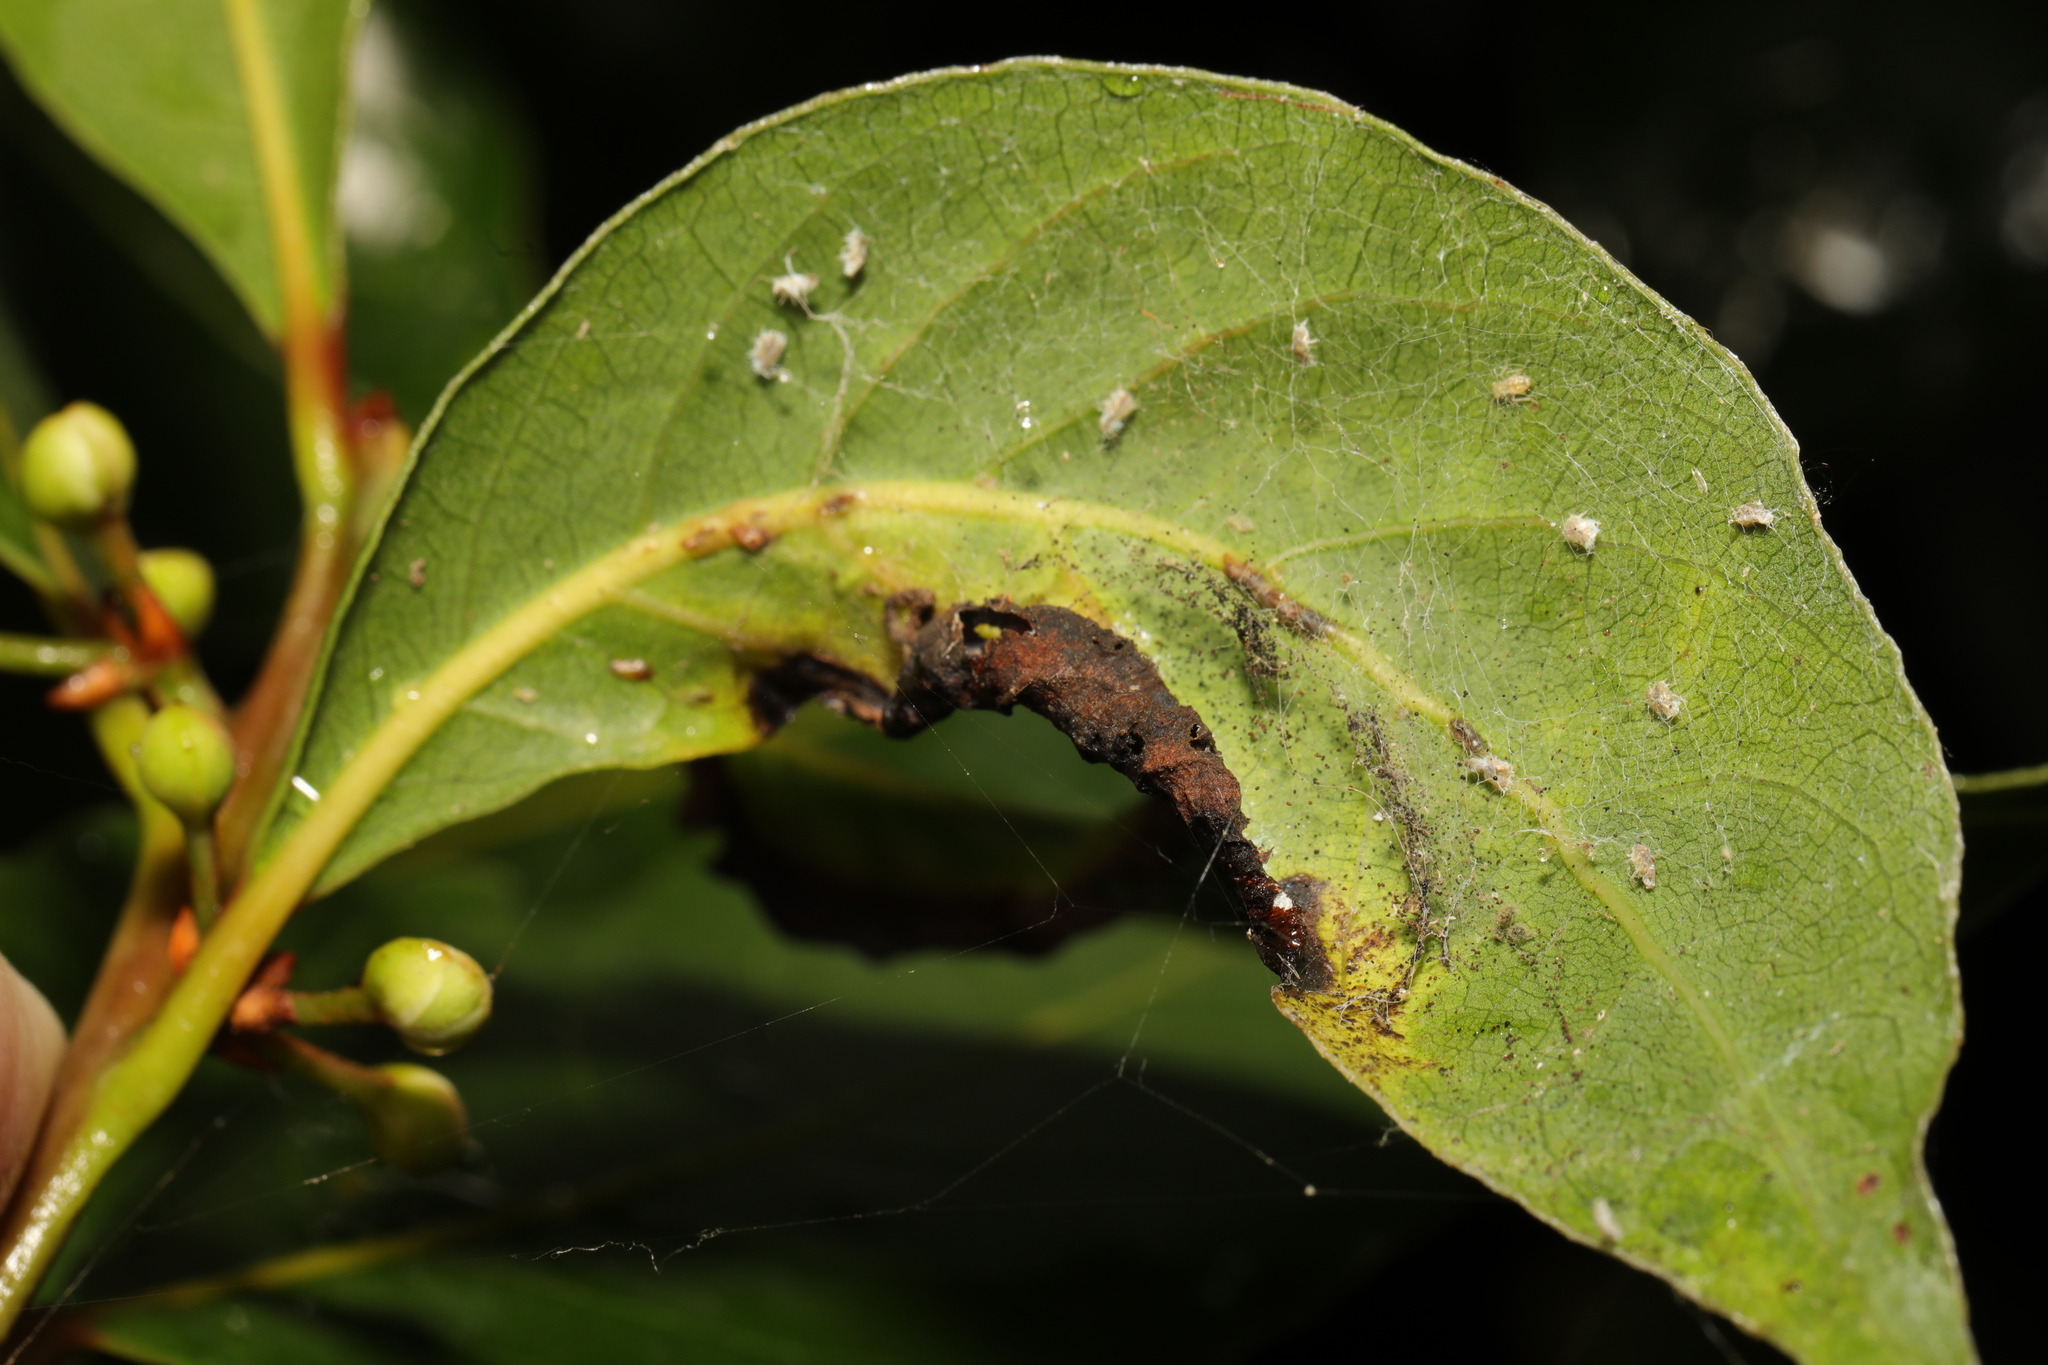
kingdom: Animalia
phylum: Arthropoda
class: Insecta
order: Hemiptera
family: Triozidae
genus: Lauritrioza
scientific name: Lauritrioza alacris
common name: Laurel psyllid
